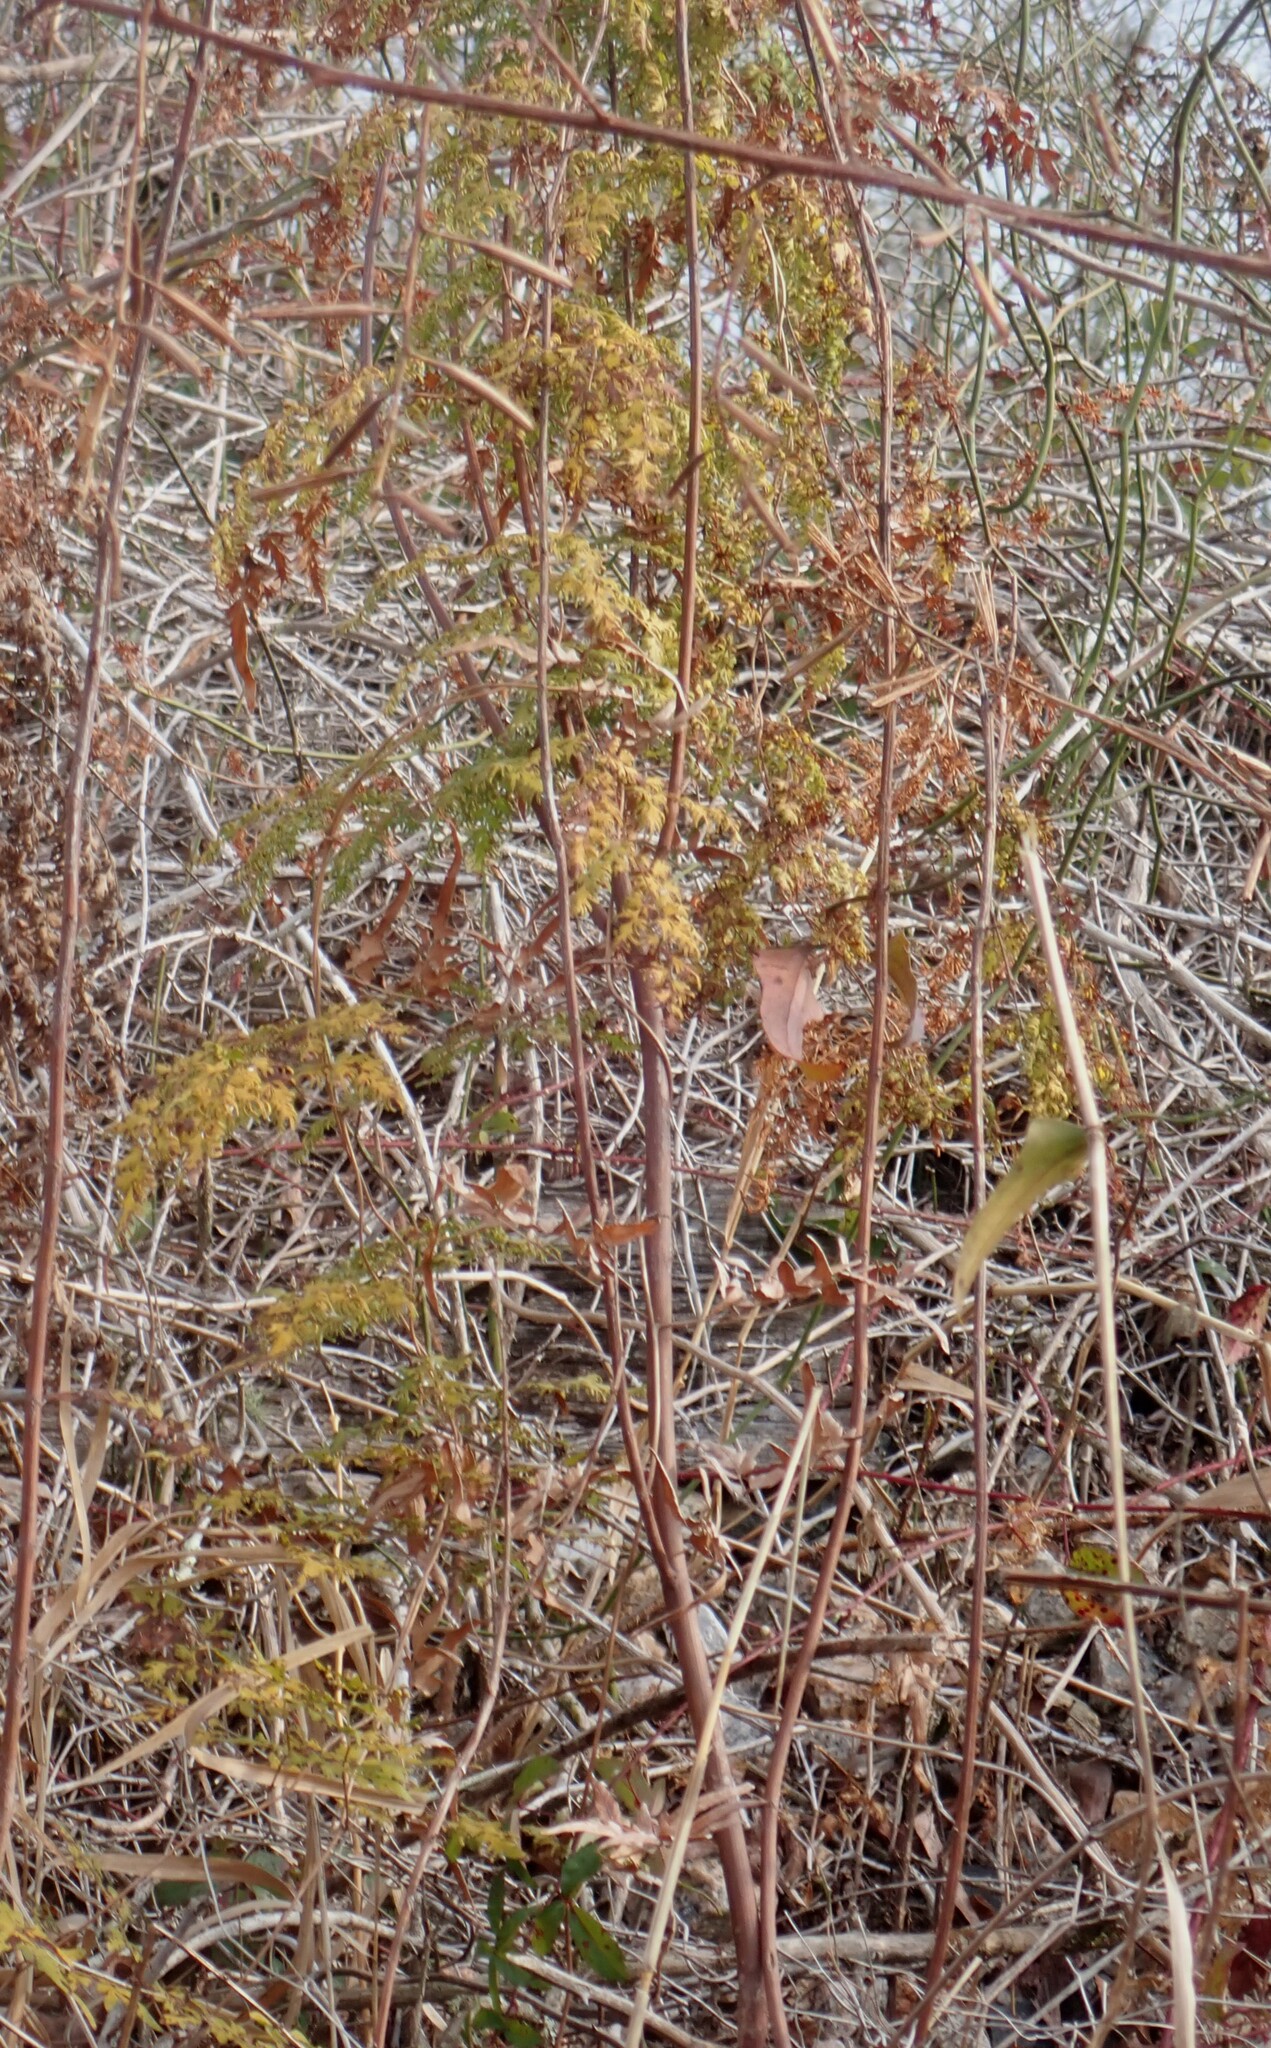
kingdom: Plantae
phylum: Tracheophyta
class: Polypodiopsida
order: Schizaeales
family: Lygodiaceae
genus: Lygodium
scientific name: Lygodium japonicum
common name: Japanese climbing fern
